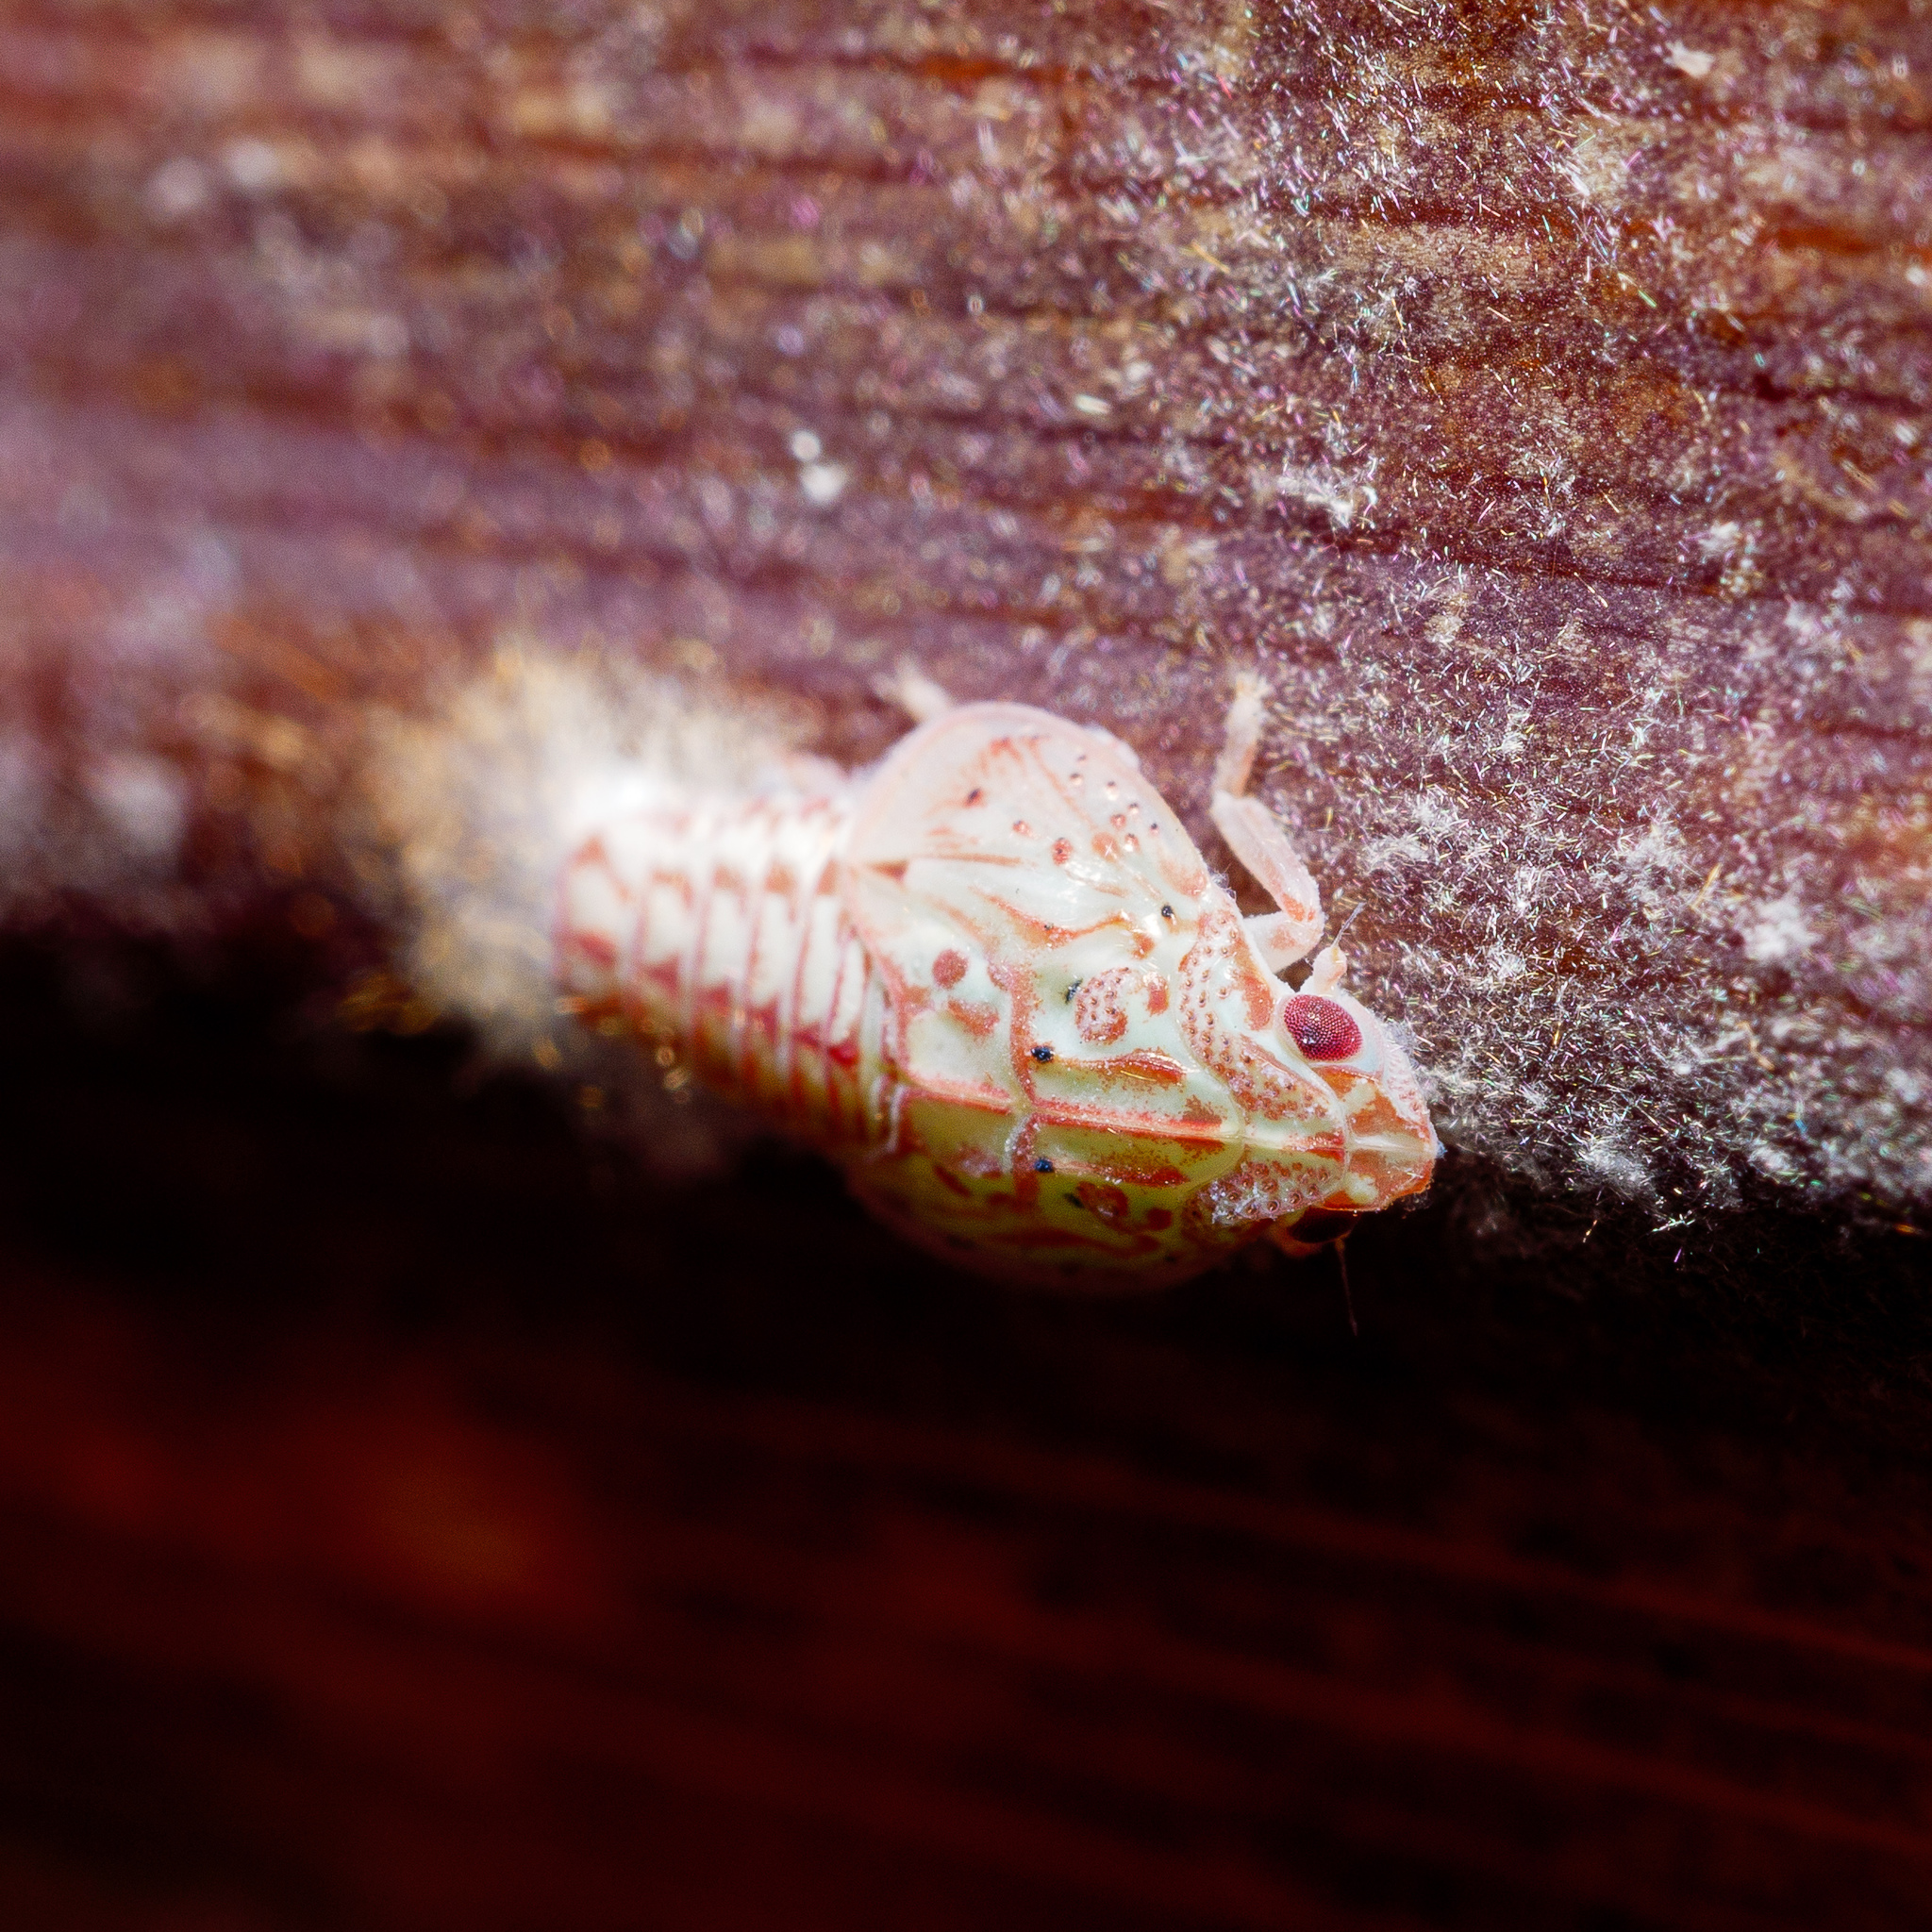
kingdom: Animalia
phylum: Arthropoda
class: Insecta
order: Hemiptera
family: Flatidae
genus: Siphanta
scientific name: Siphanta acuta
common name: Torpedo bug
